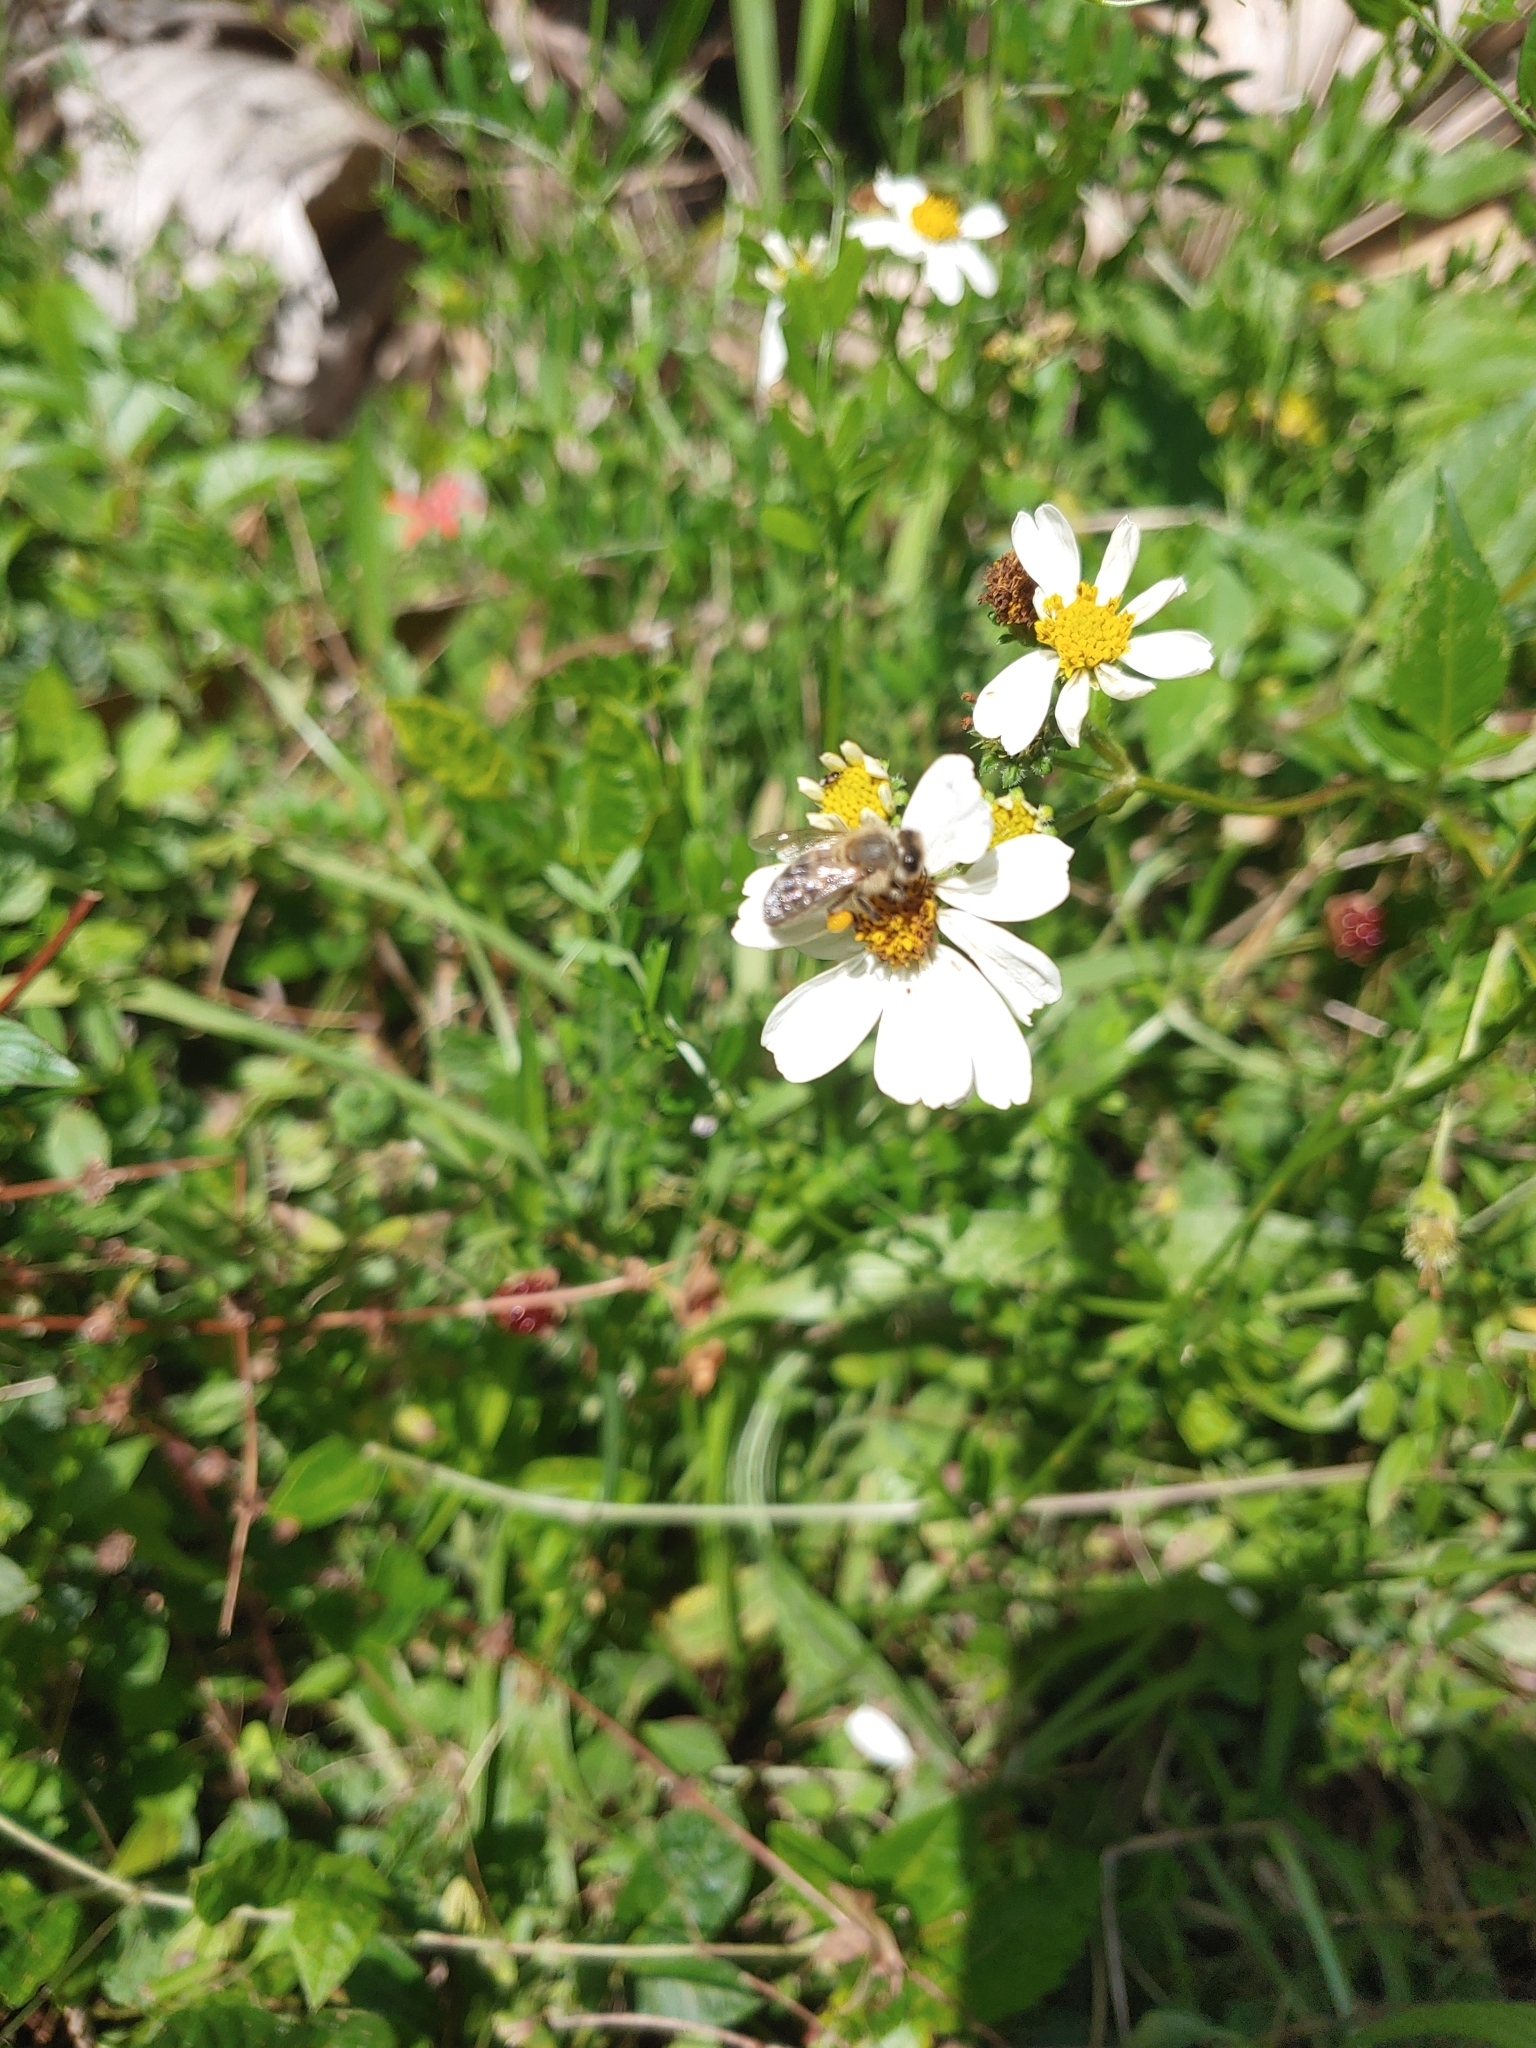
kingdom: Animalia
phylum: Arthropoda
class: Insecta
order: Hymenoptera
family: Apidae
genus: Apis
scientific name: Apis mellifera
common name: Honey bee
